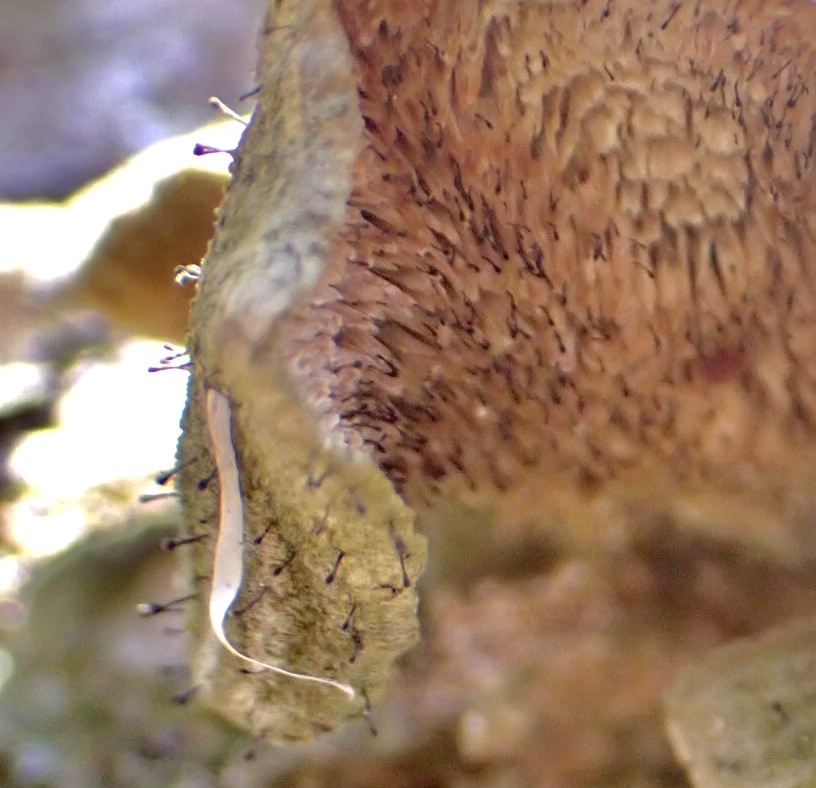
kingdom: Fungi
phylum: Ascomycota
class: Eurotiomycetes
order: Mycocaliciales
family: Mycocaliciaceae
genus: Phaeocalicium
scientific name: Phaeocalicium polyporaeum
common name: Fairy pins
